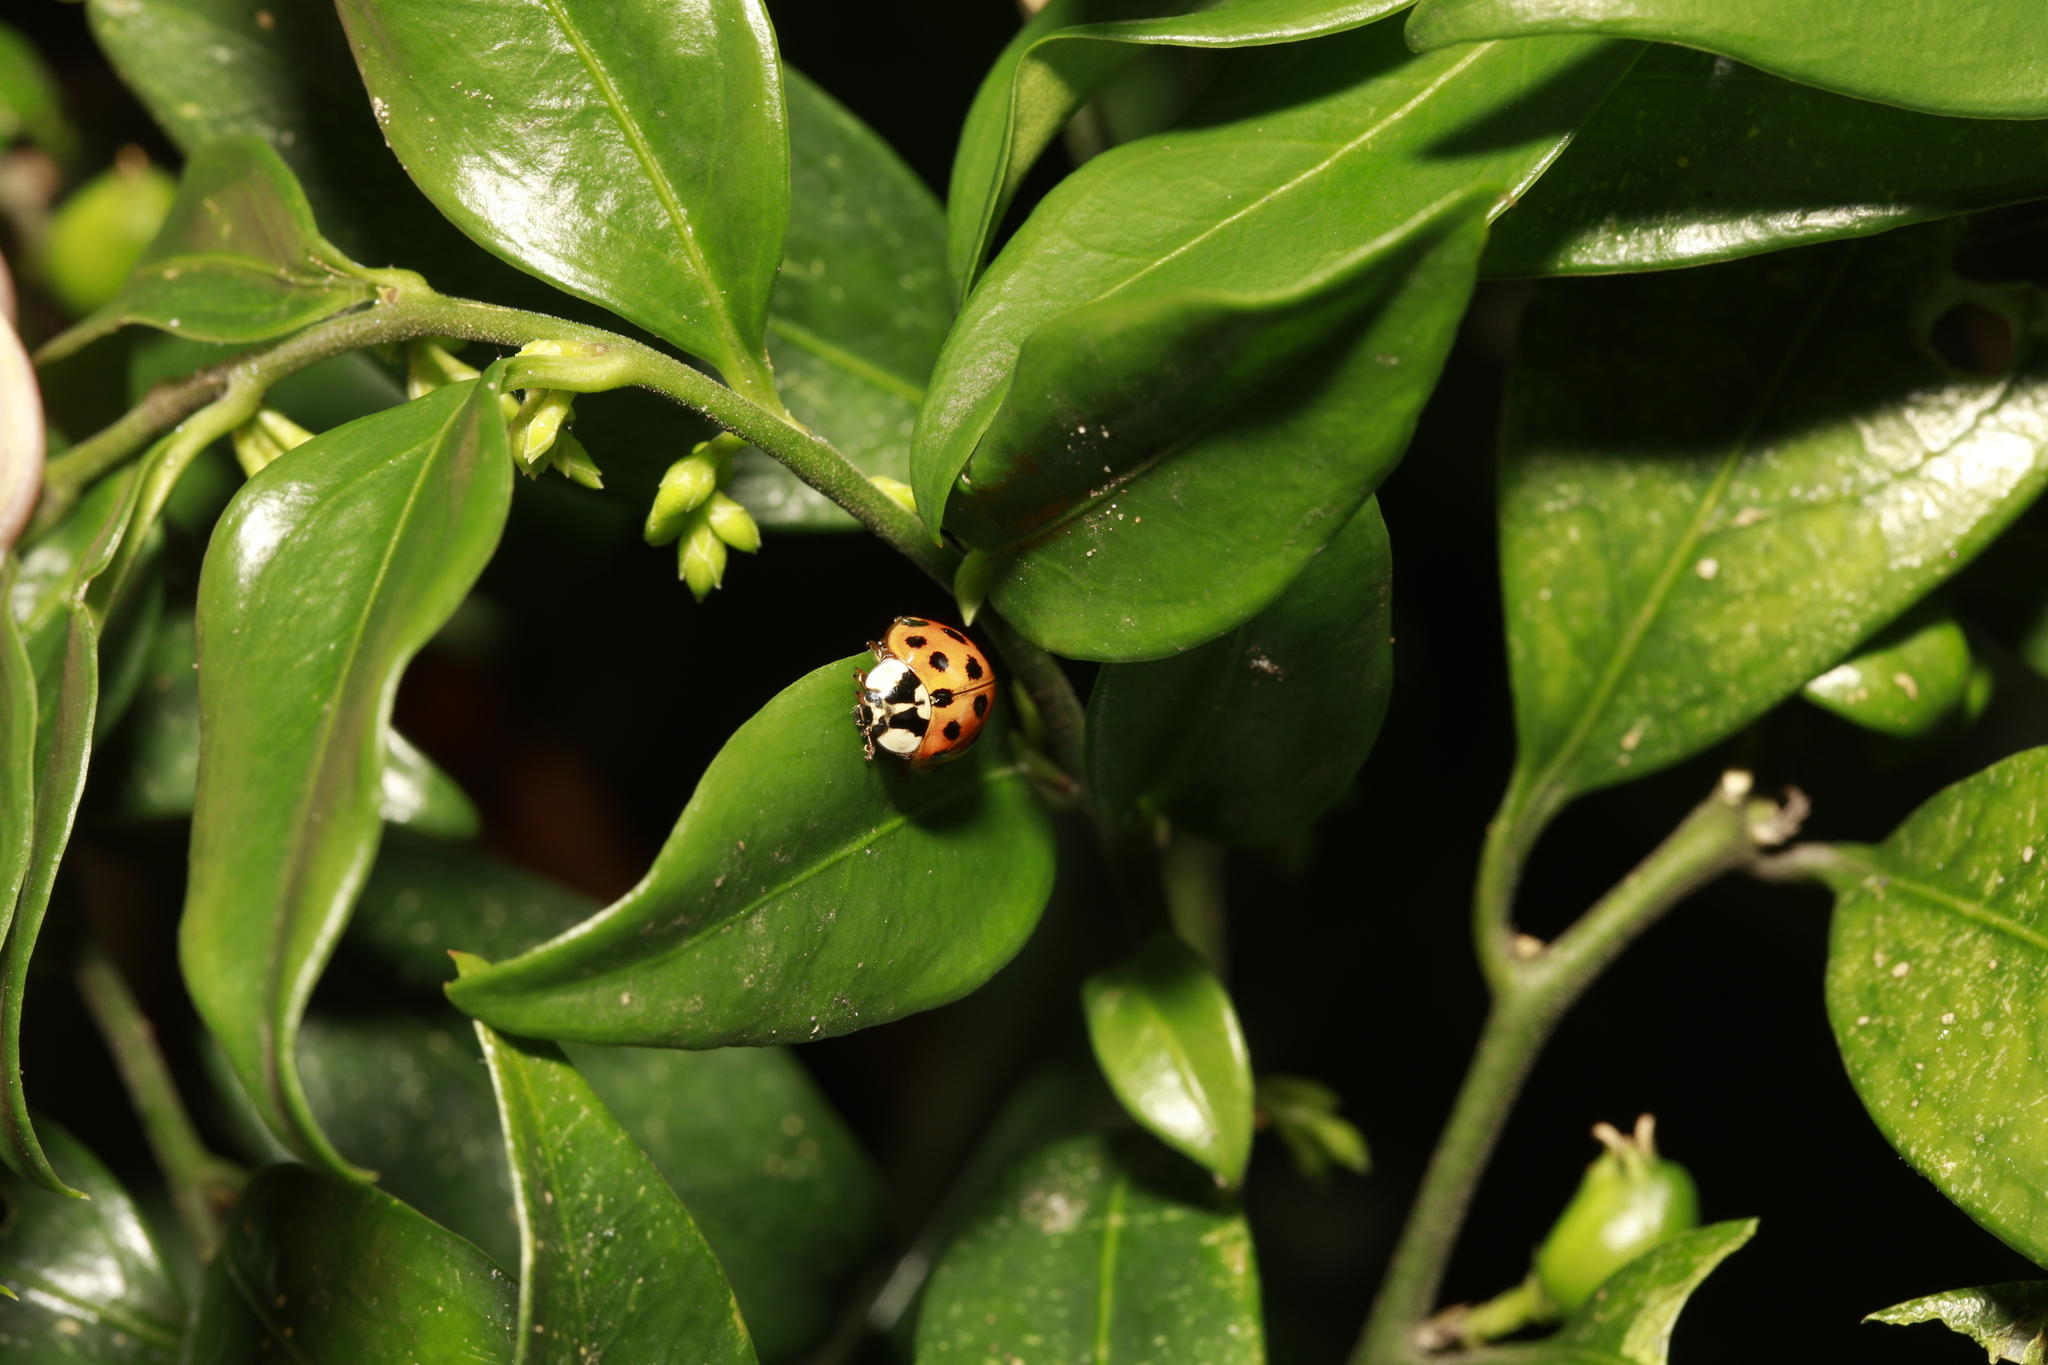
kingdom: Animalia
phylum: Arthropoda
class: Insecta
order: Coleoptera
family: Coccinellidae
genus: Harmonia
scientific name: Harmonia axyridis
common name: Harlequin ladybird
